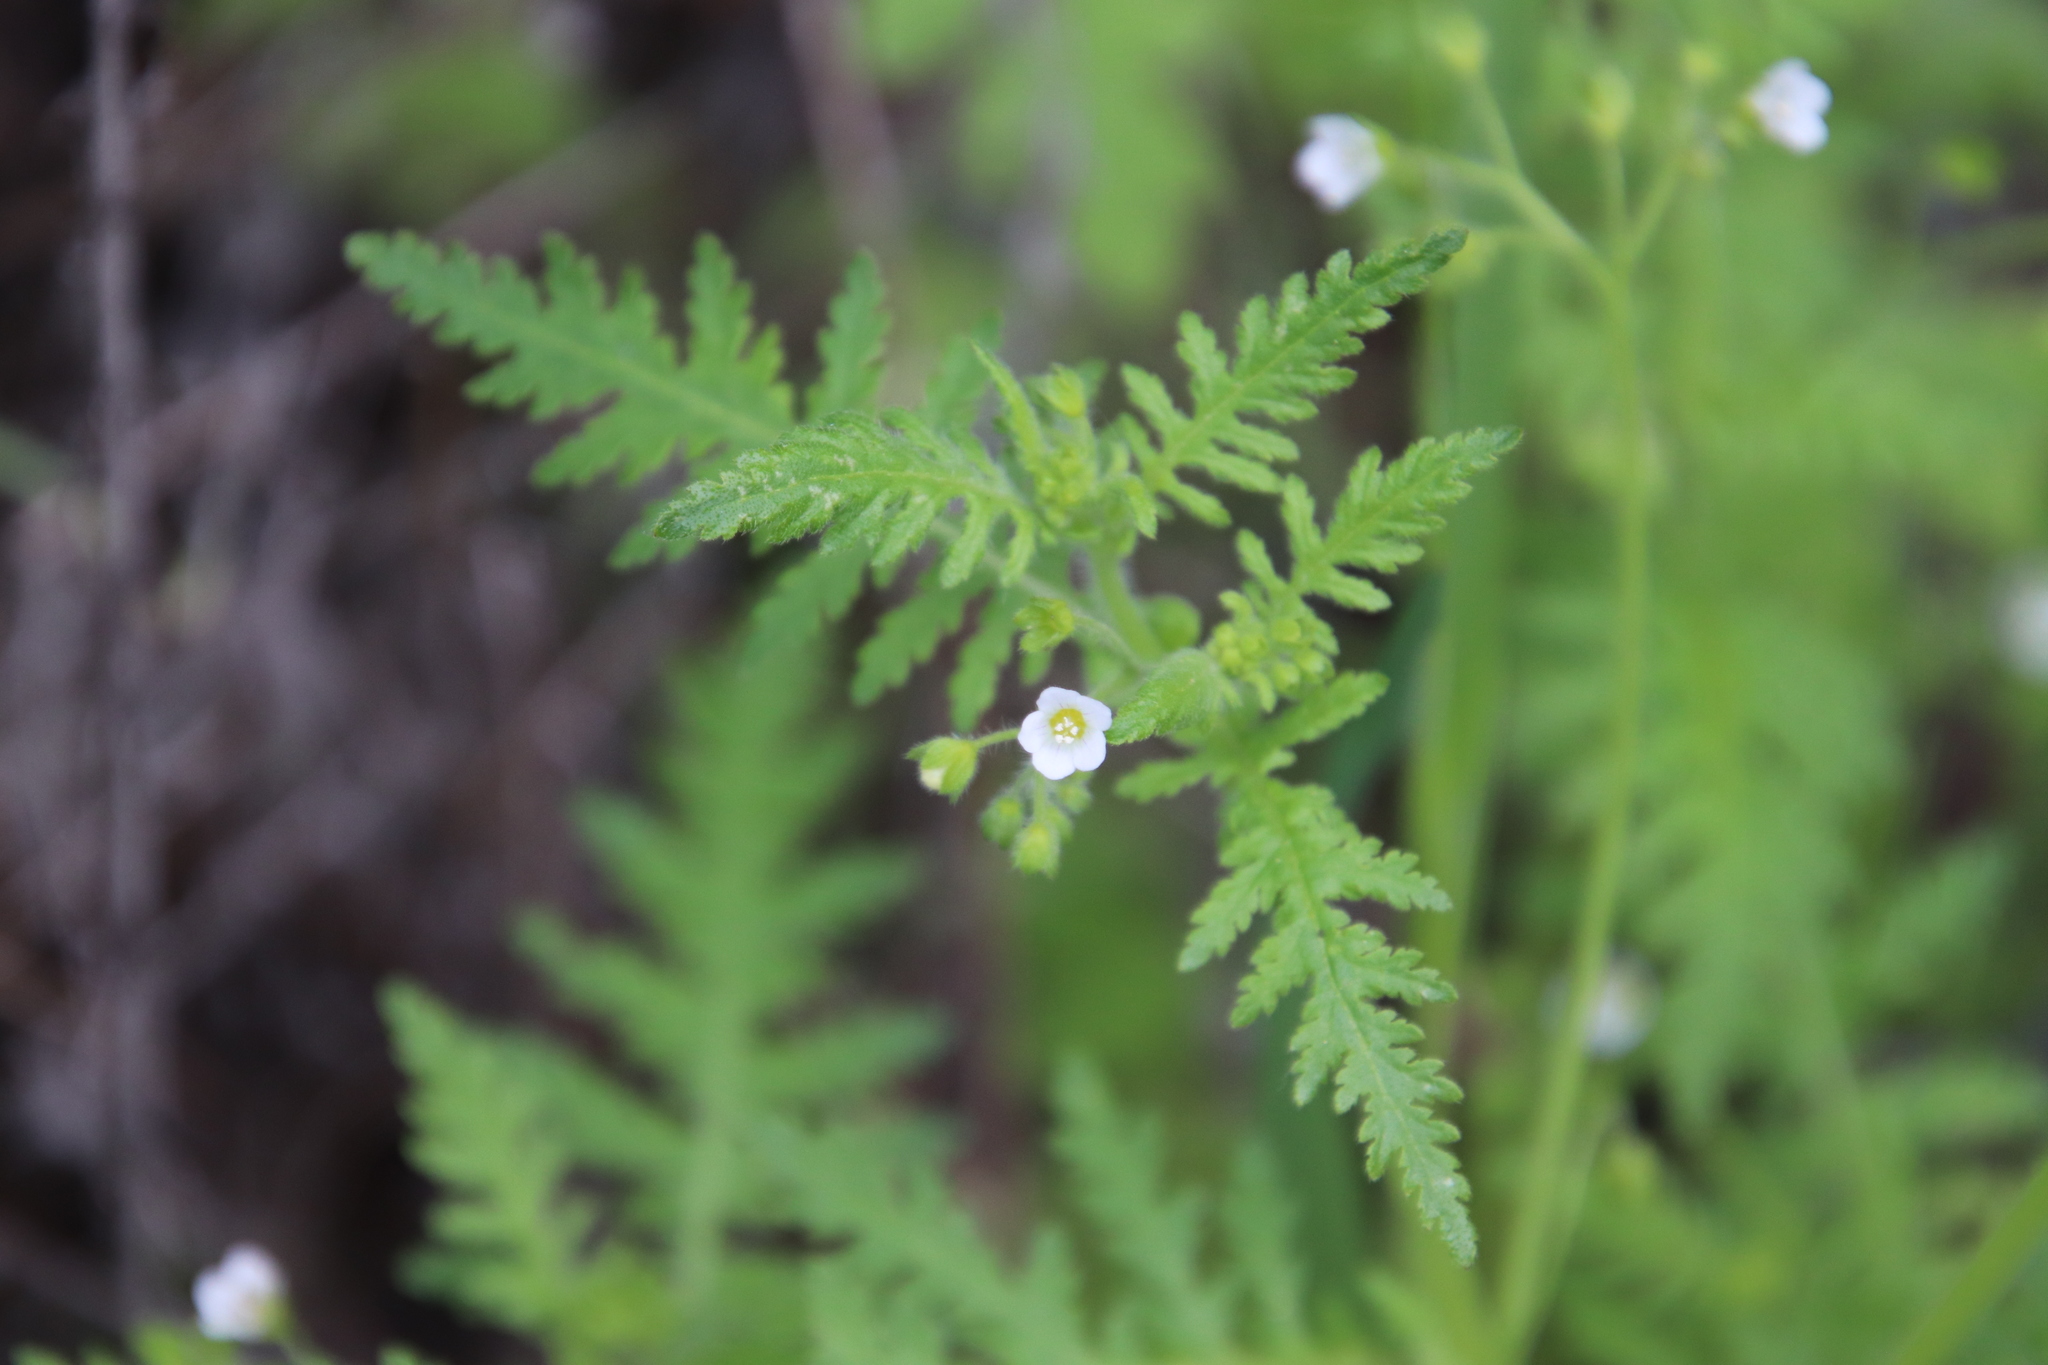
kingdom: Plantae
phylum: Tracheophyta
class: Magnoliopsida
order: Boraginales
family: Hydrophyllaceae
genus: Eucrypta
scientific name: Eucrypta chrysanthemifolia
